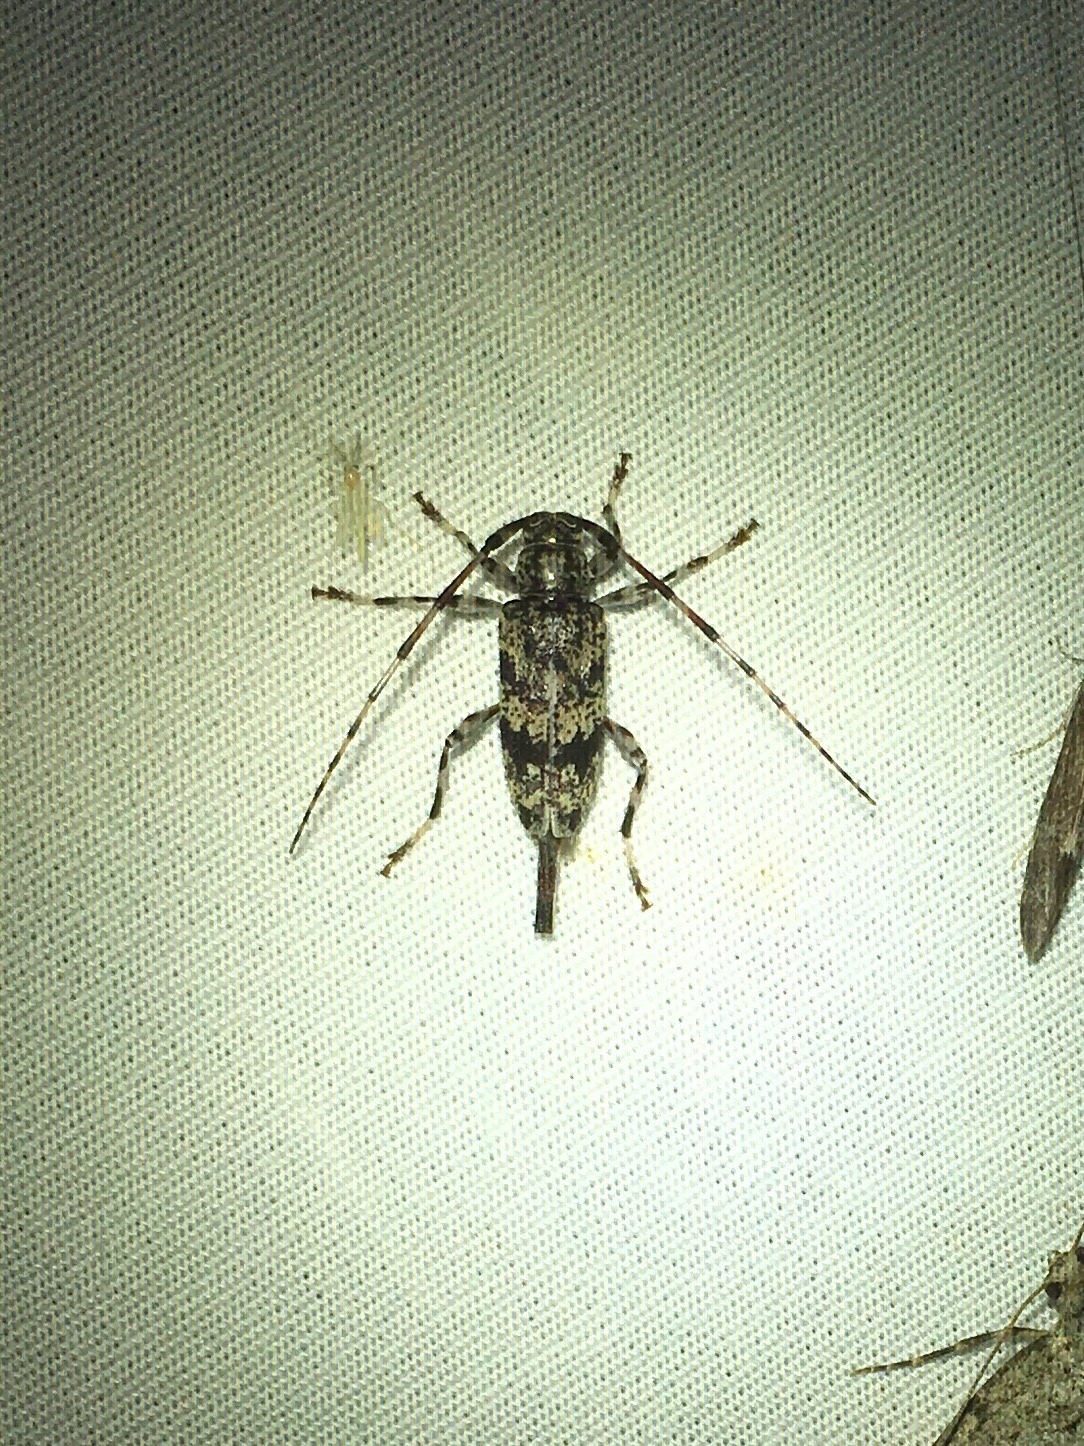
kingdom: Animalia
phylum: Arthropoda
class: Insecta
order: Coleoptera
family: Cerambycidae
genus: Graphisurus
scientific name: Graphisurus fasciatus
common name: Banded graphisurus
